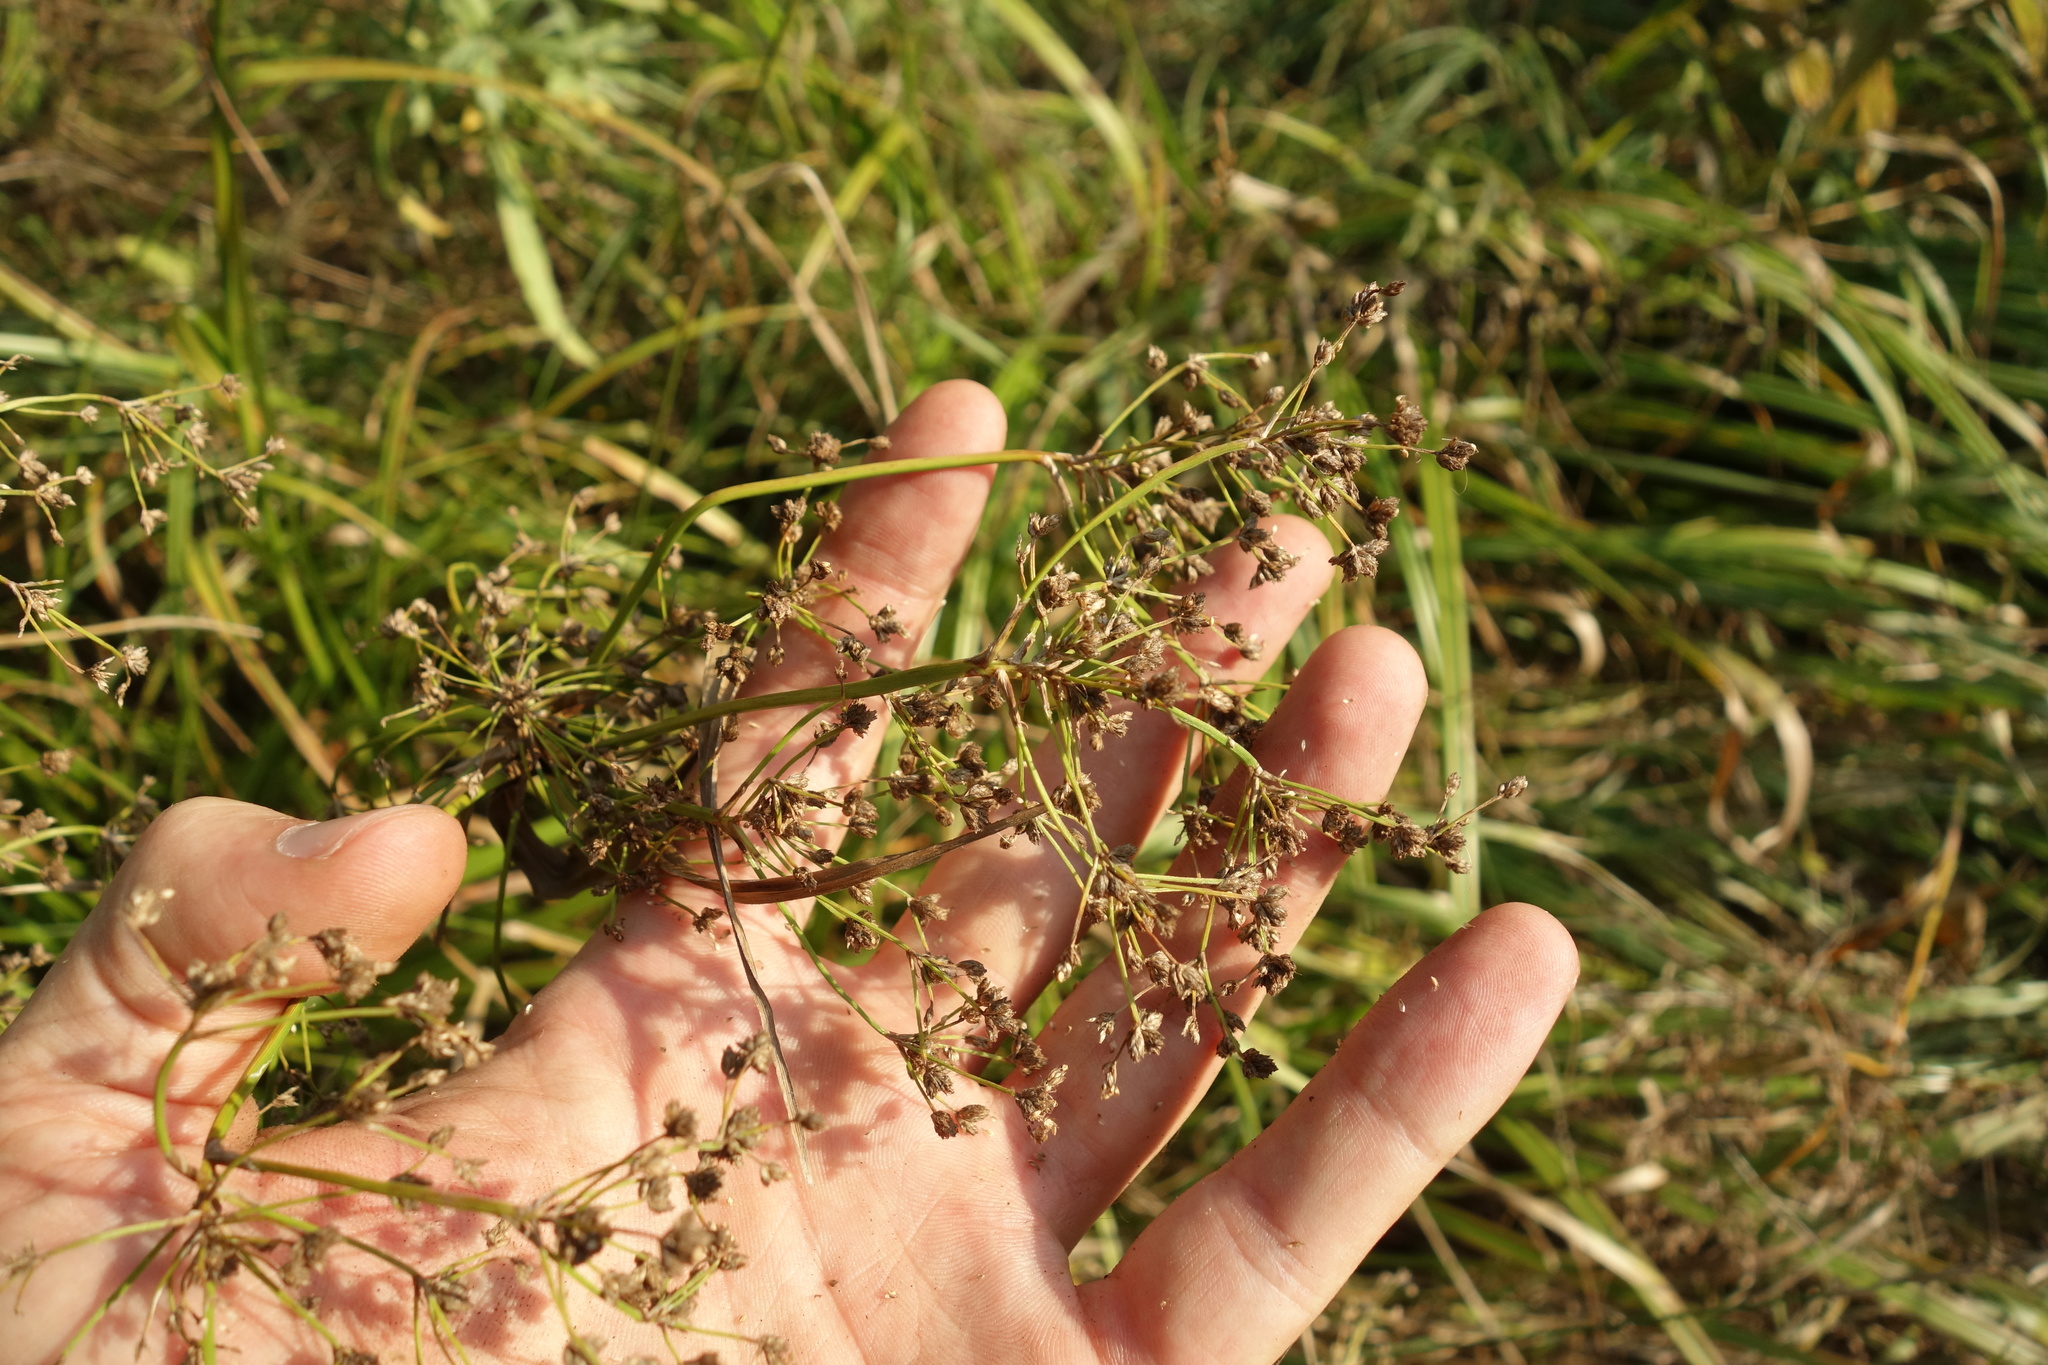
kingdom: Plantae
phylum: Tracheophyta
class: Liliopsida
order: Poales
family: Cyperaceae
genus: Scirpus
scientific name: Scirpus sylvaticus
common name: Wood club-rush
